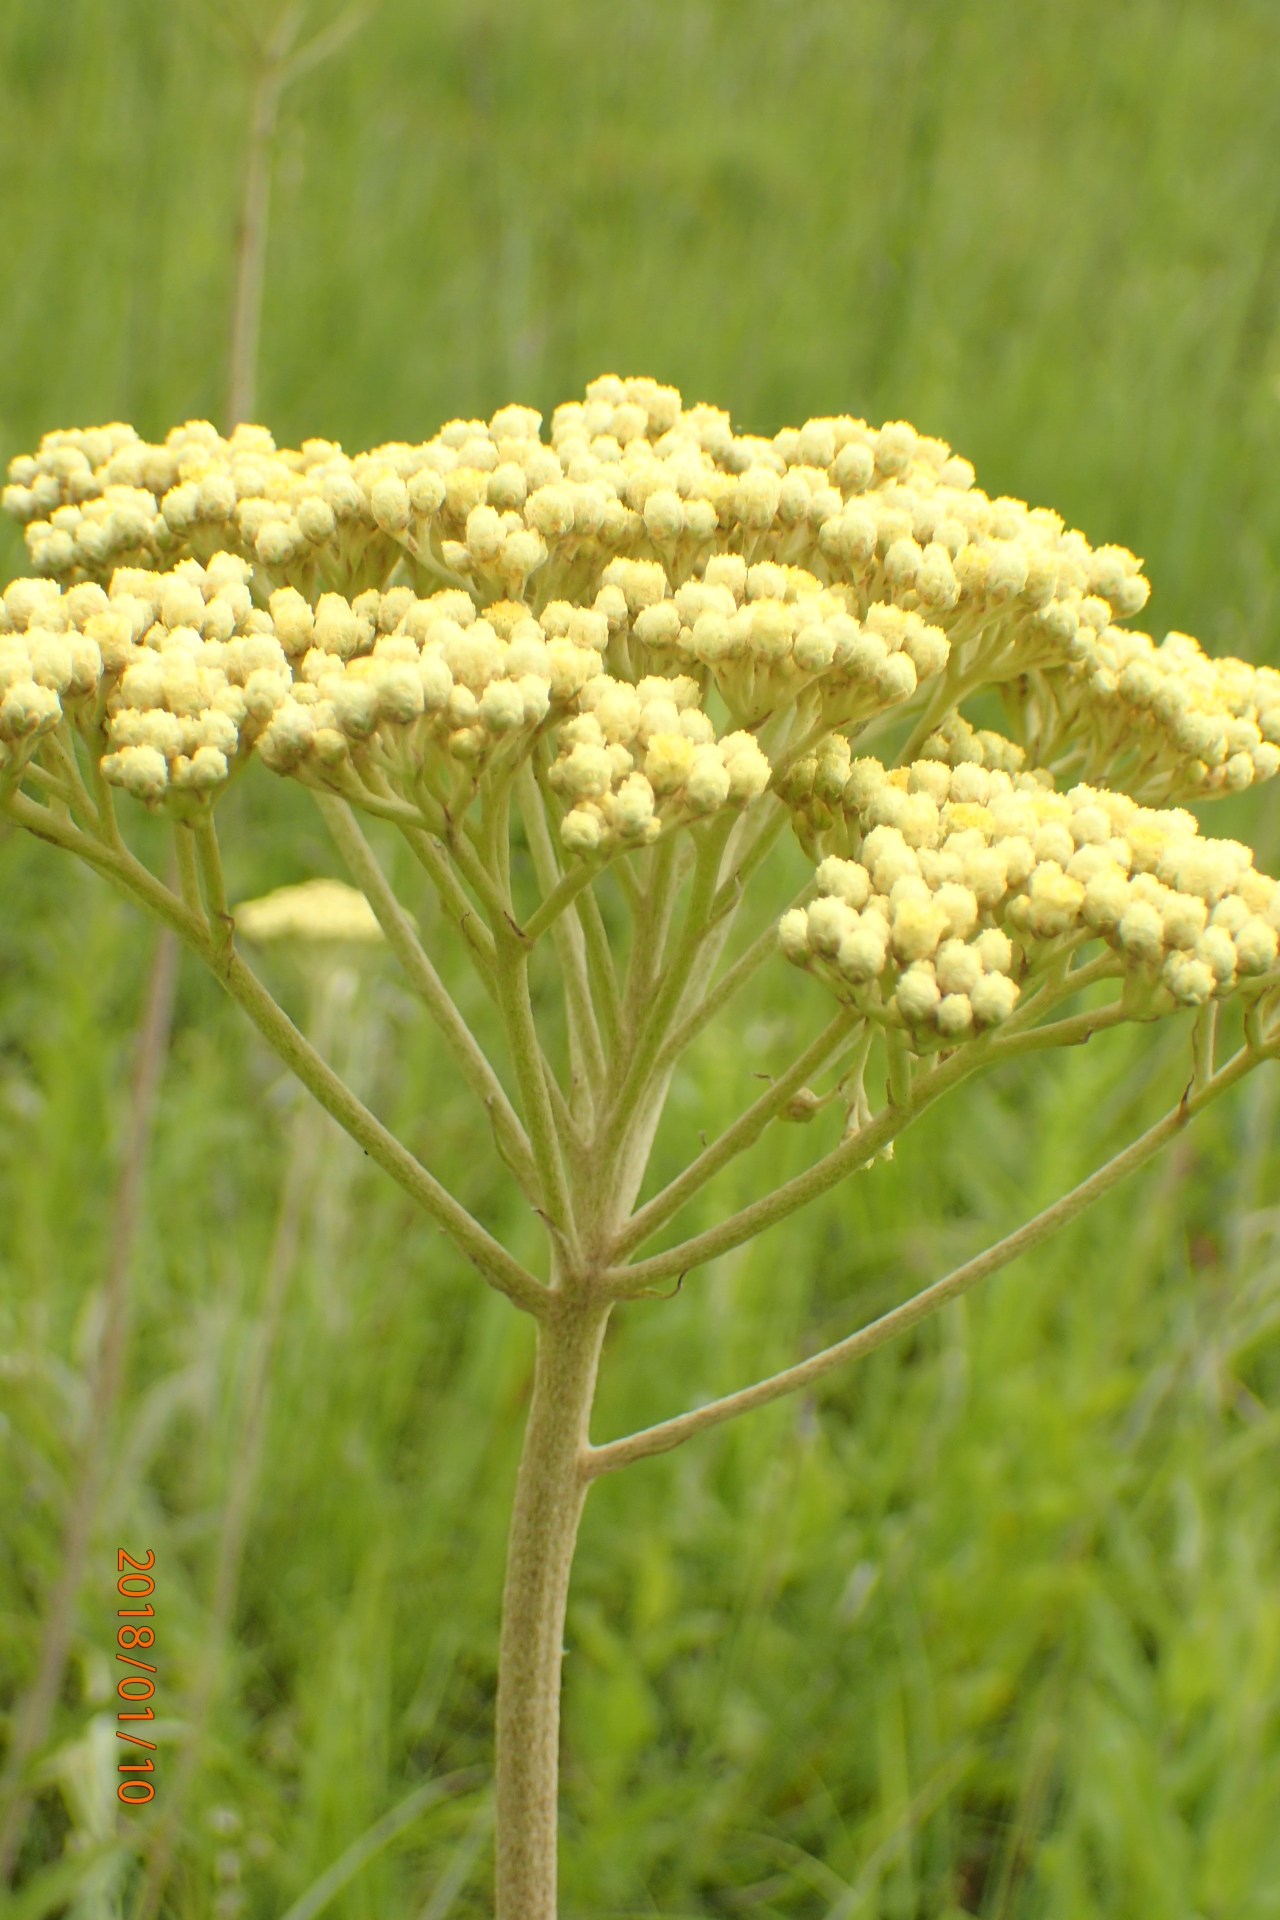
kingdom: Plantae
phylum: Tracheophyta
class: Magnoliopsida
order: Asterales
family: Asteraceae
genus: Helichrysum
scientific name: Helichrysum nudifolium
